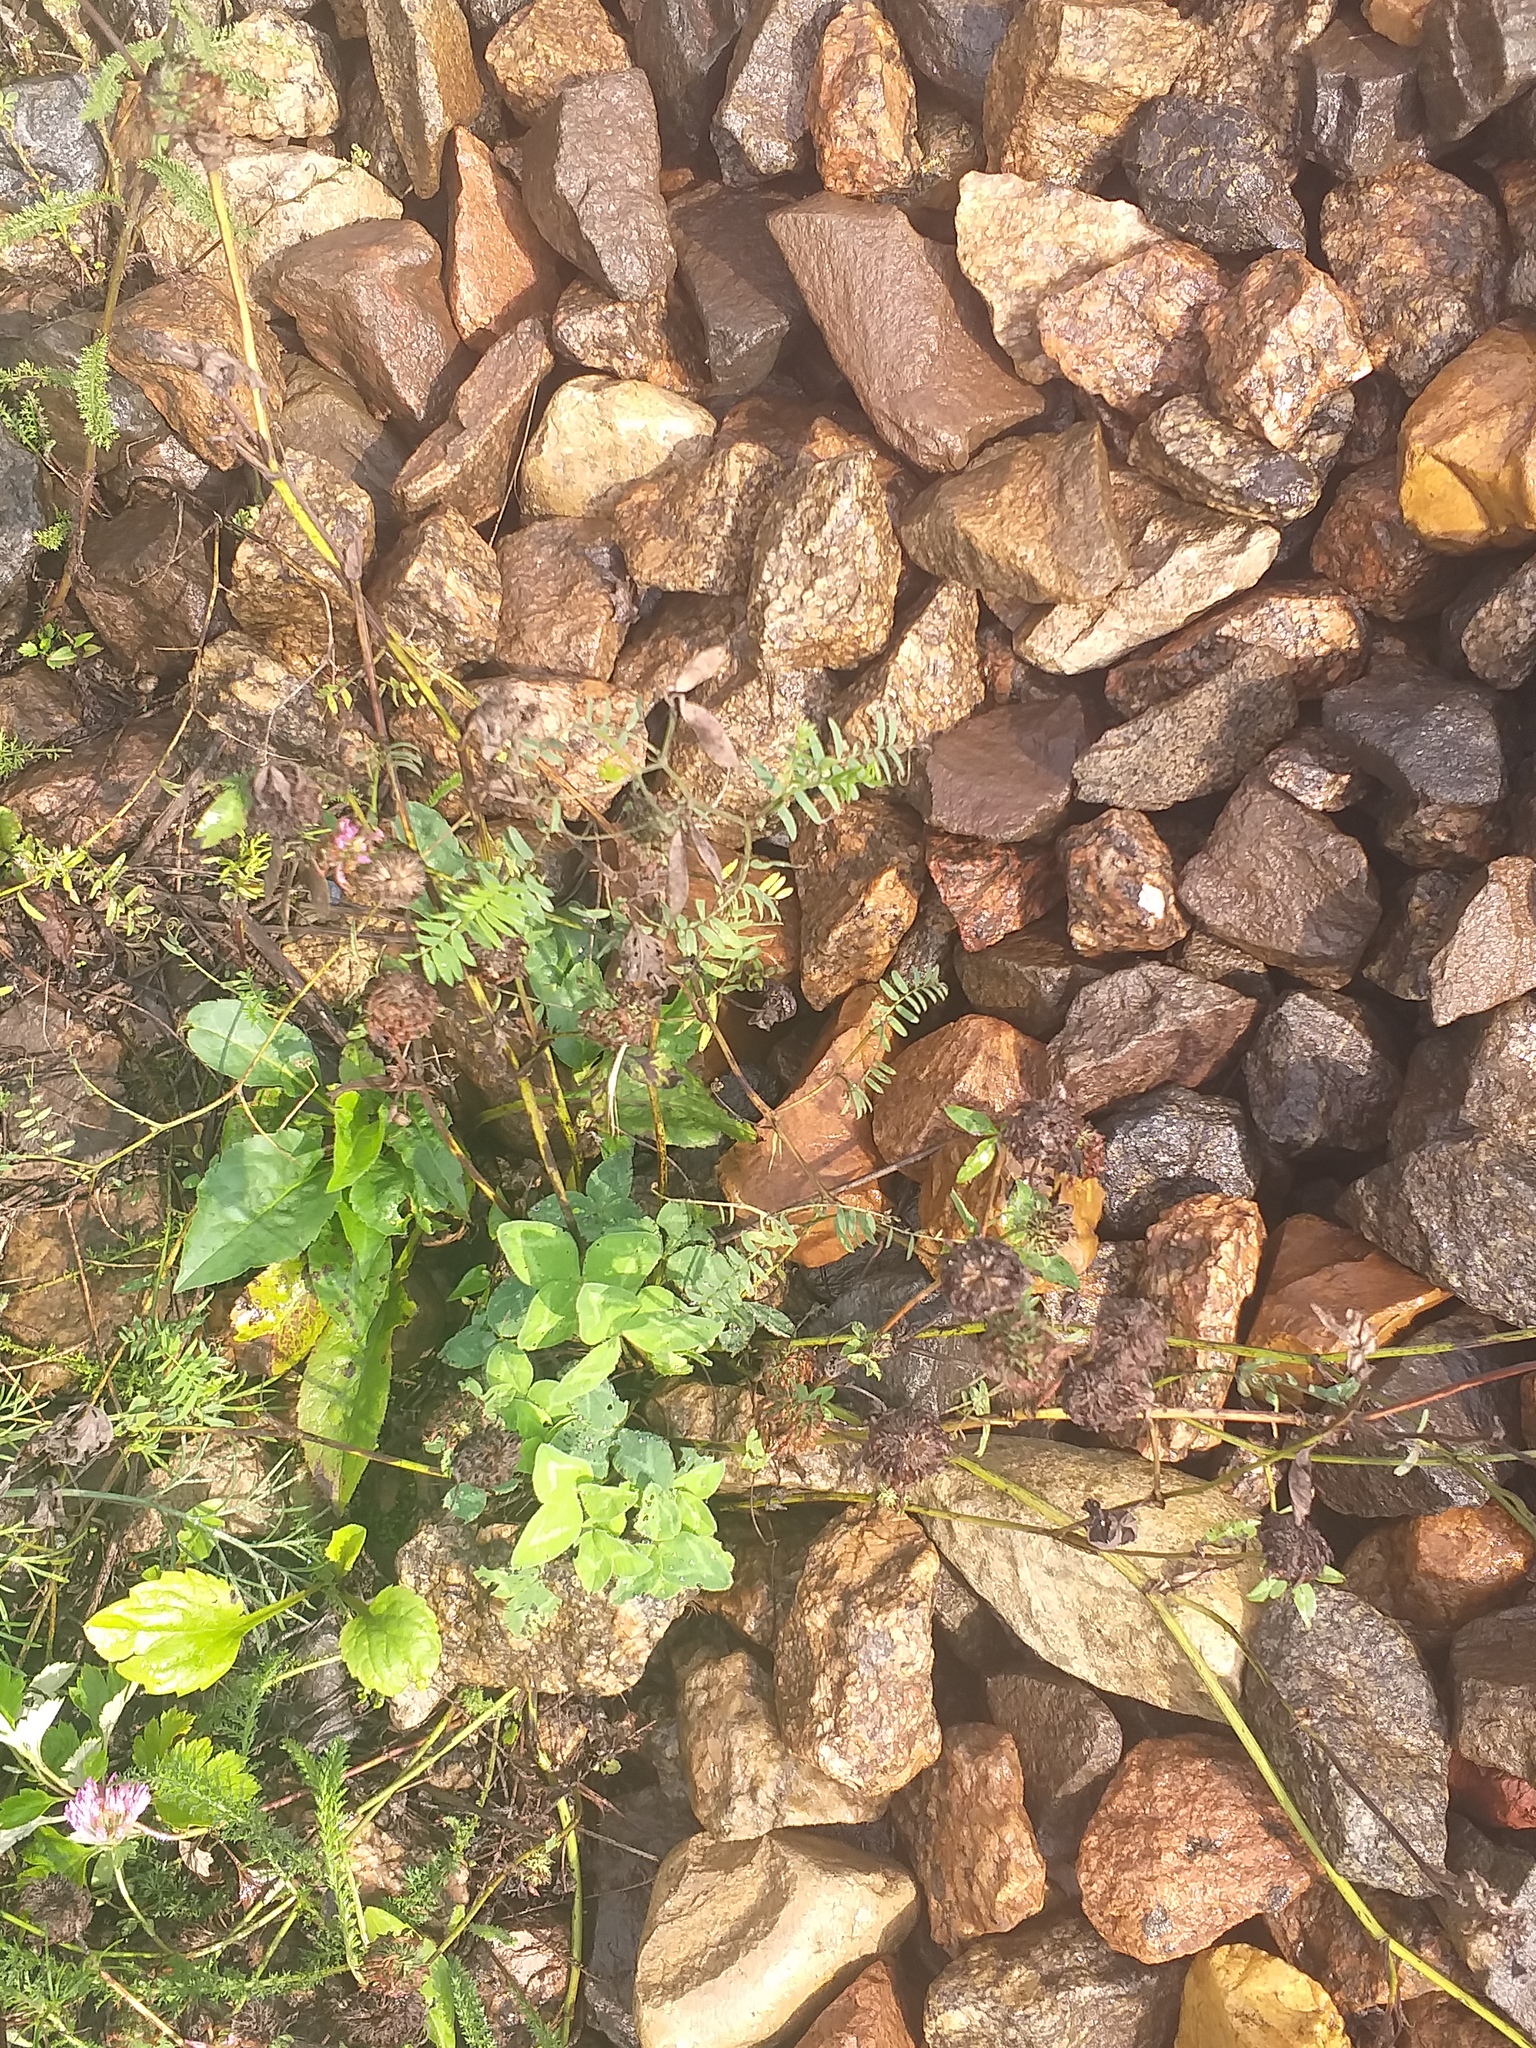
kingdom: Plantae
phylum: Tracheophyta
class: Magnoliopsida
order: Fabales
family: Fabaceae
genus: Trifolium
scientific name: Trifolium pratense
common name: Red clover
